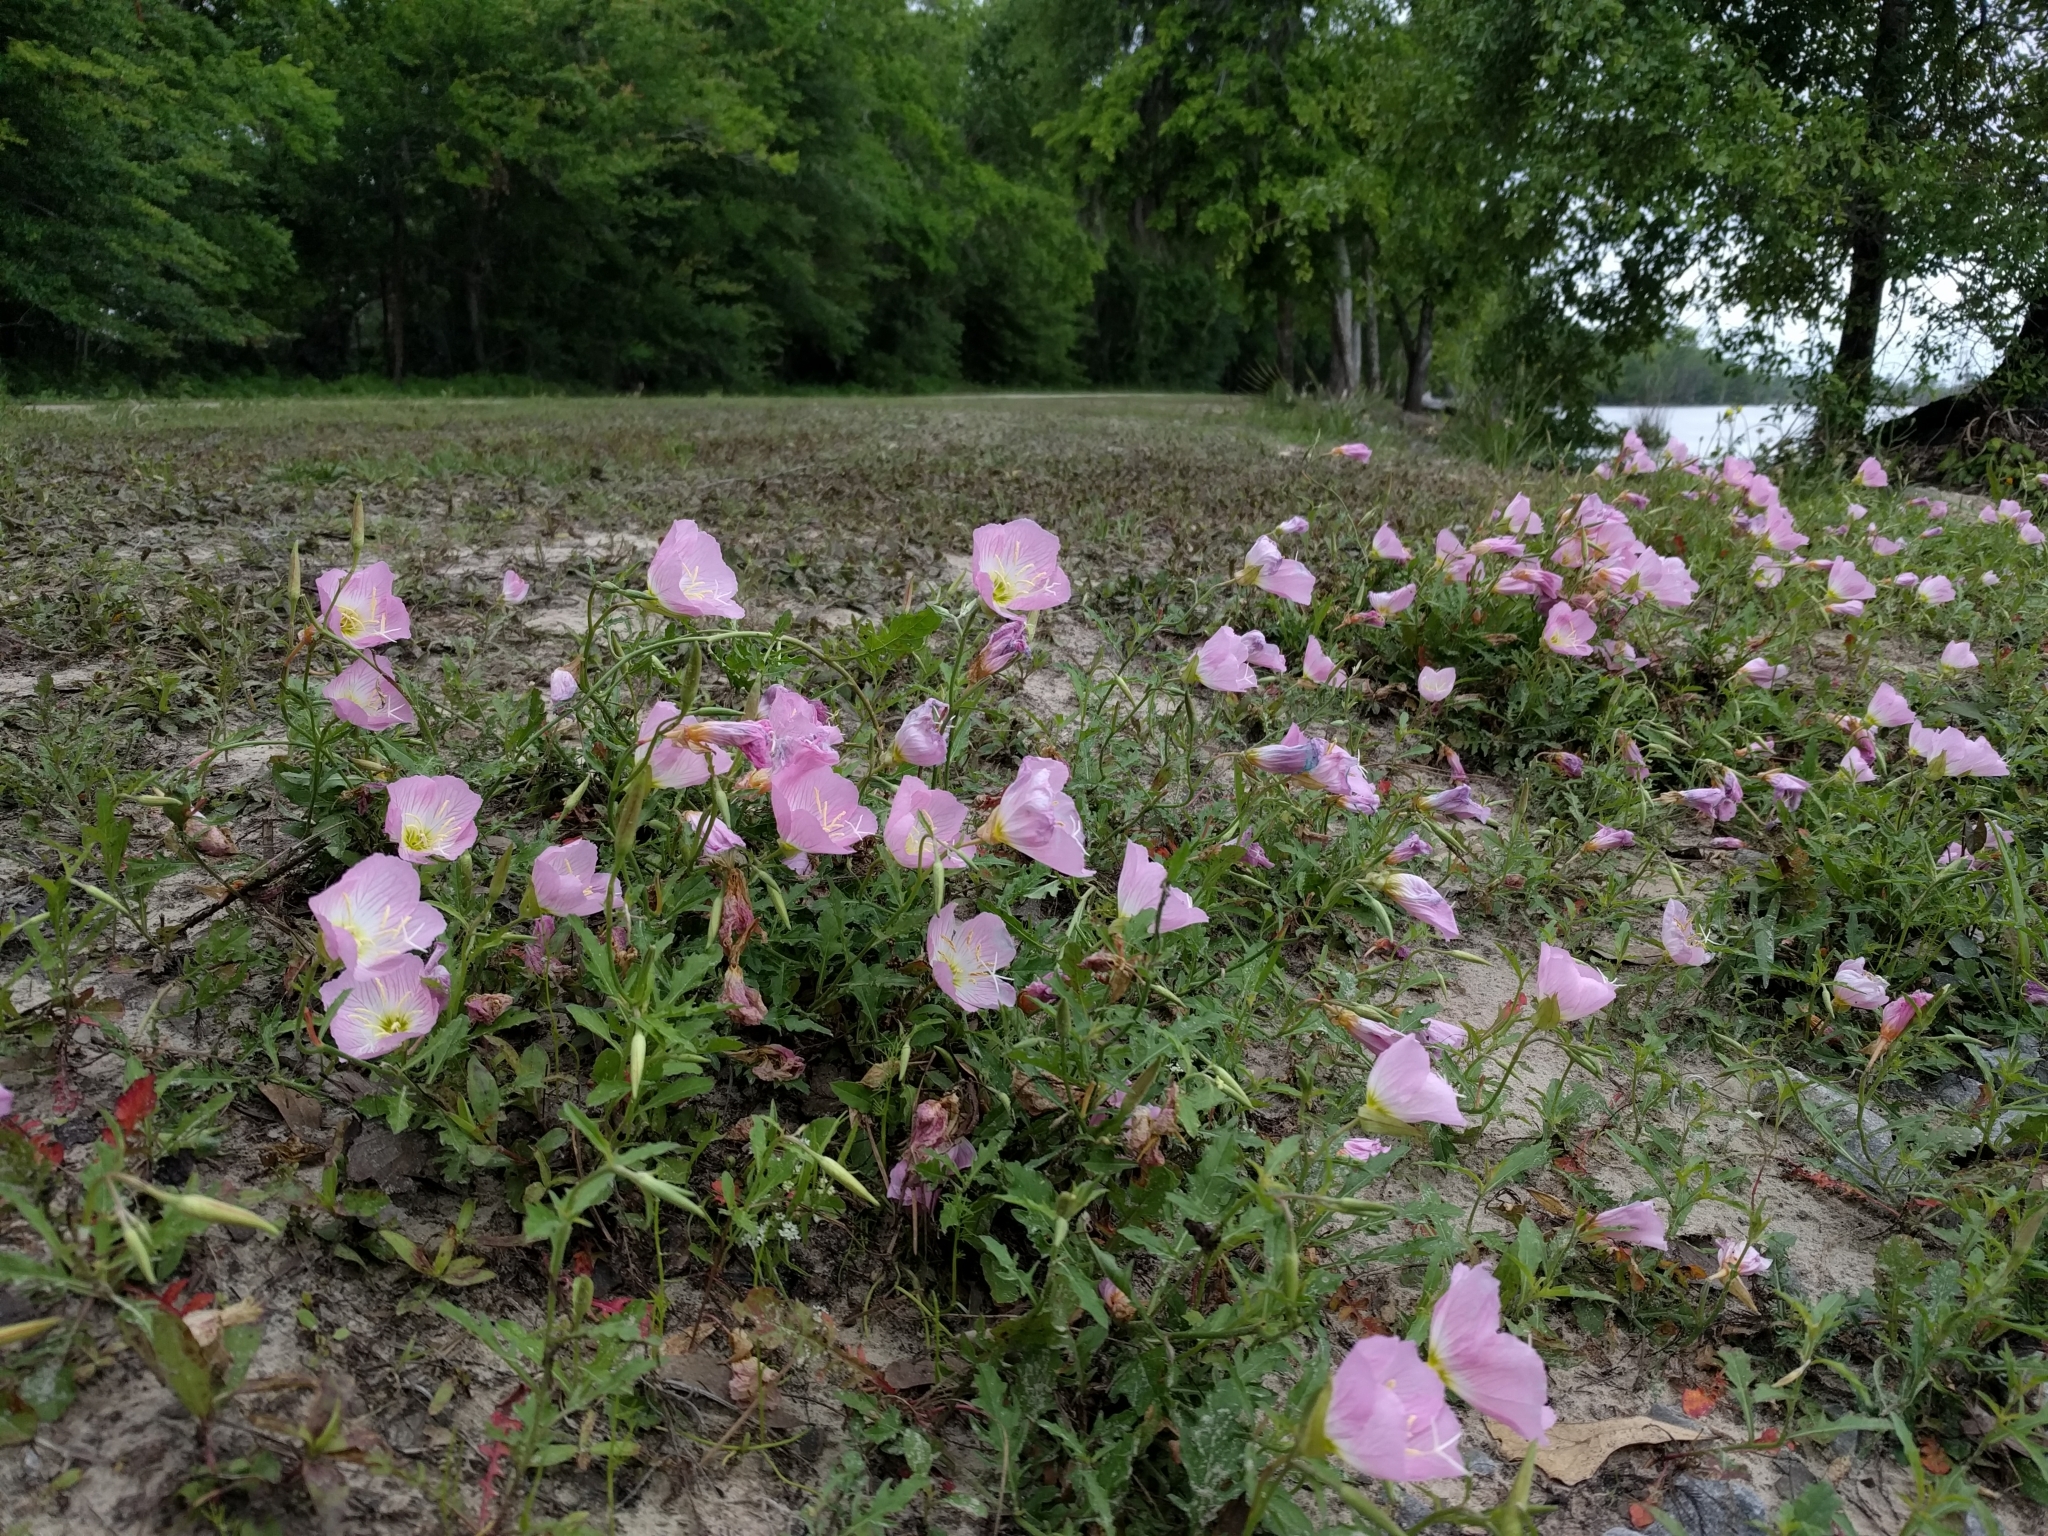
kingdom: Plantae
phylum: Tracheophyta
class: Magnoliopsida
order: Myrtales
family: Onagraceae
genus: Oenothera
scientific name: Oenothera speciosa
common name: White evening-primrose
